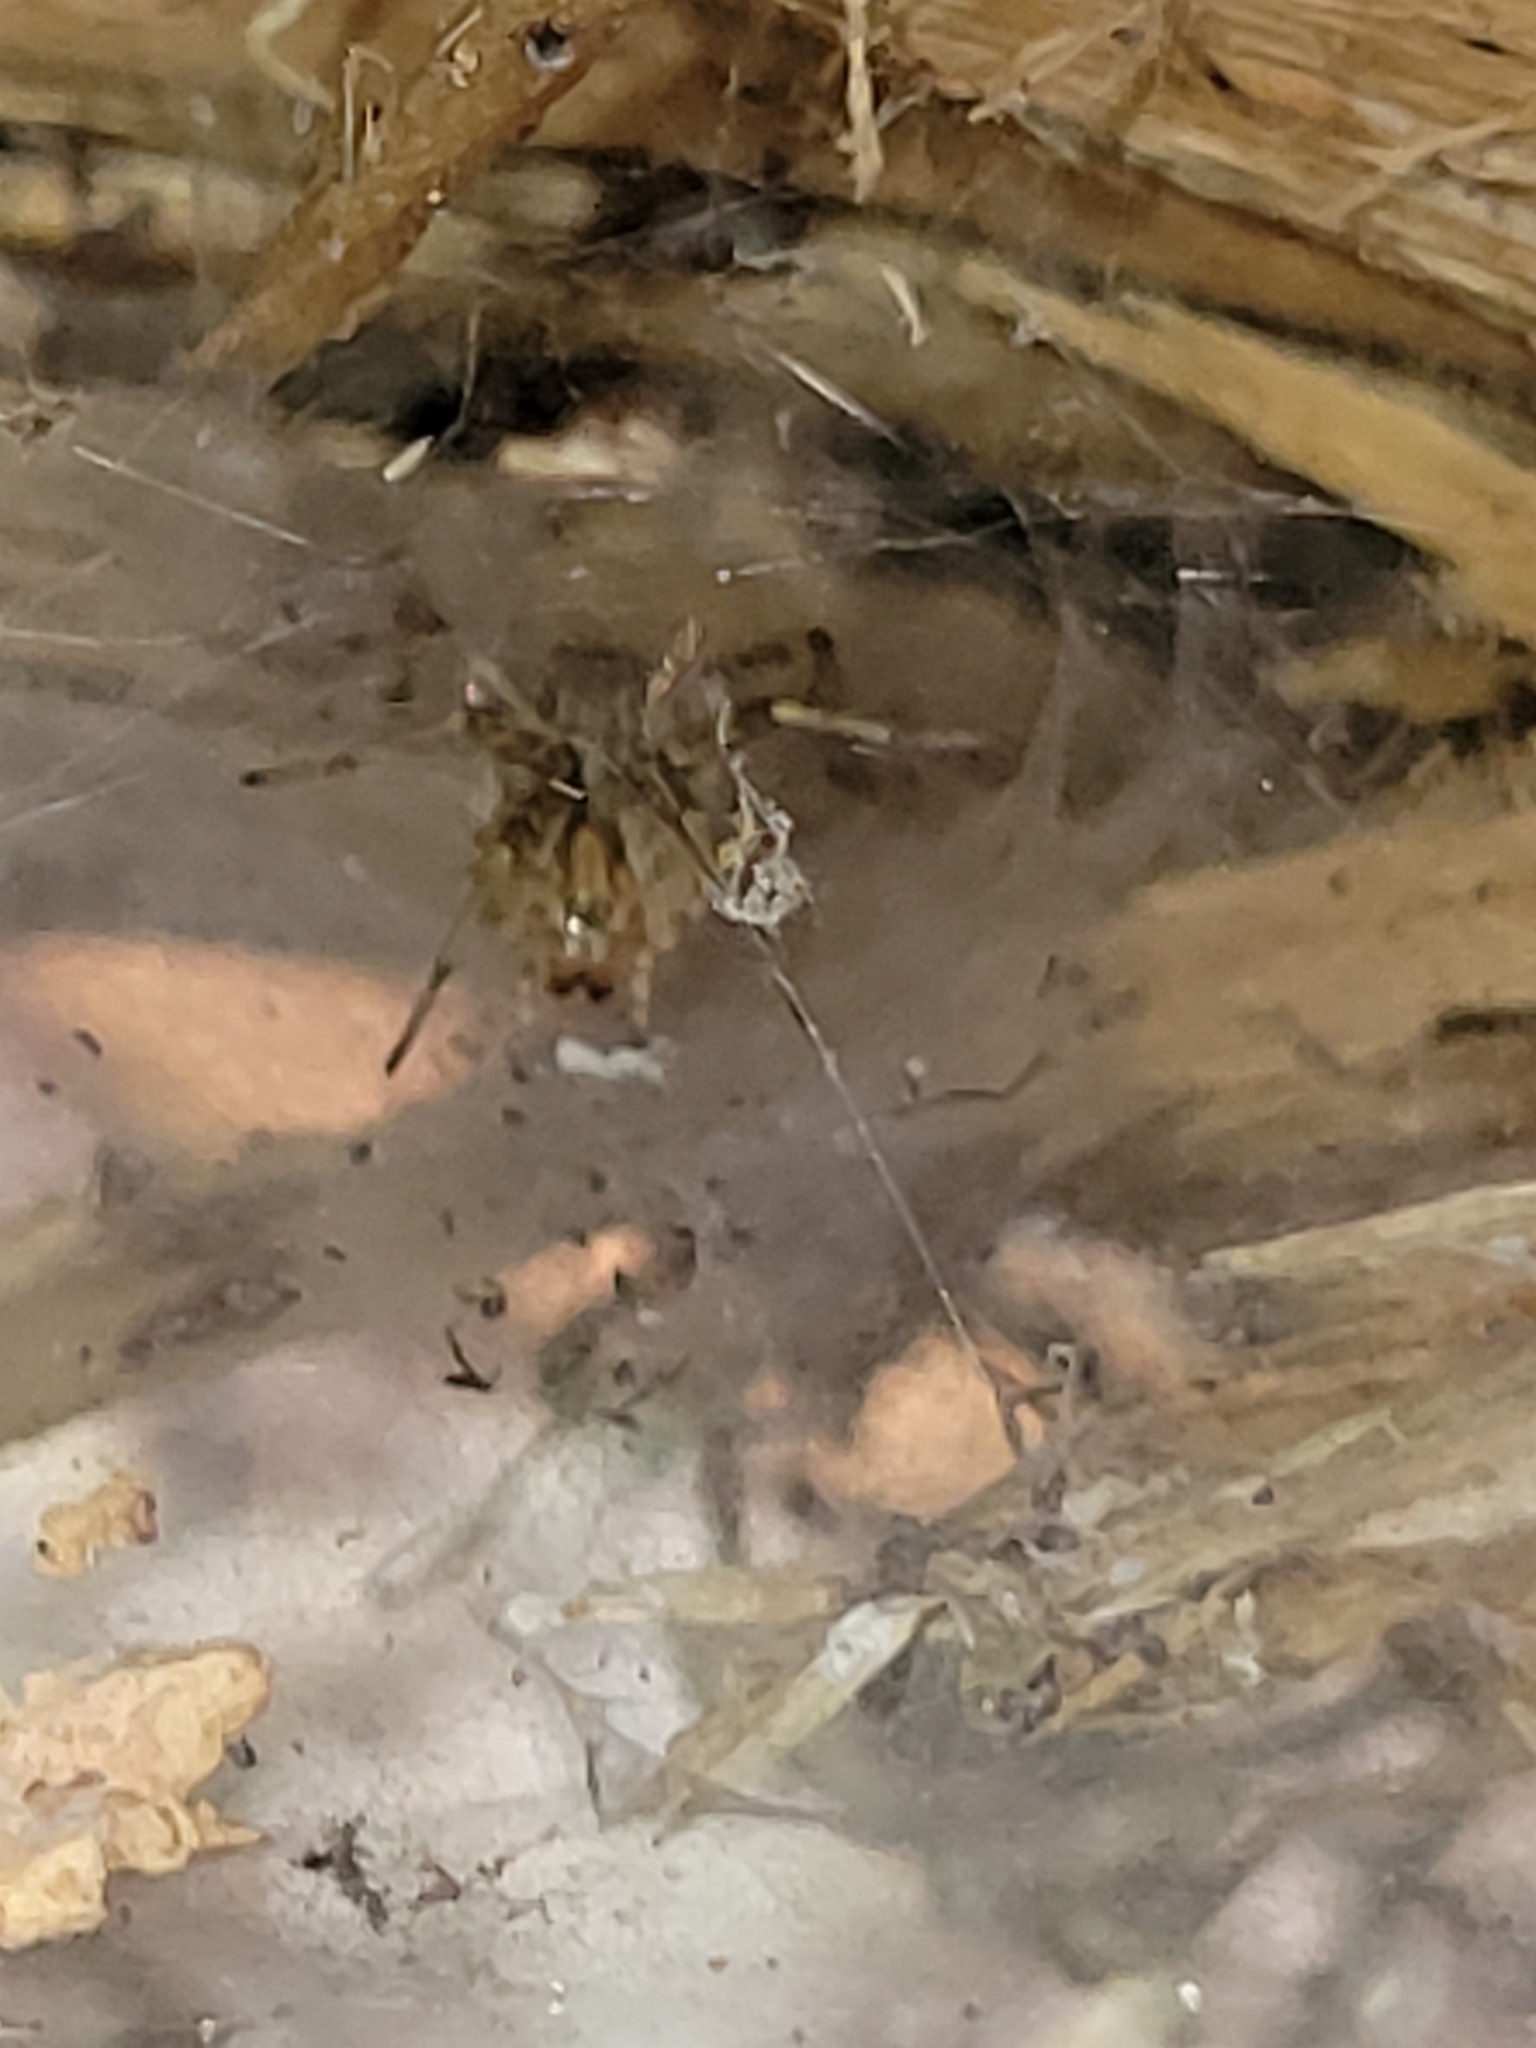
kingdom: Animalia
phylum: Arthropoda
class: Arachnida
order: Araneae
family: Agelenidae
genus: Agelenopsis
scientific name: Agelenopsis
